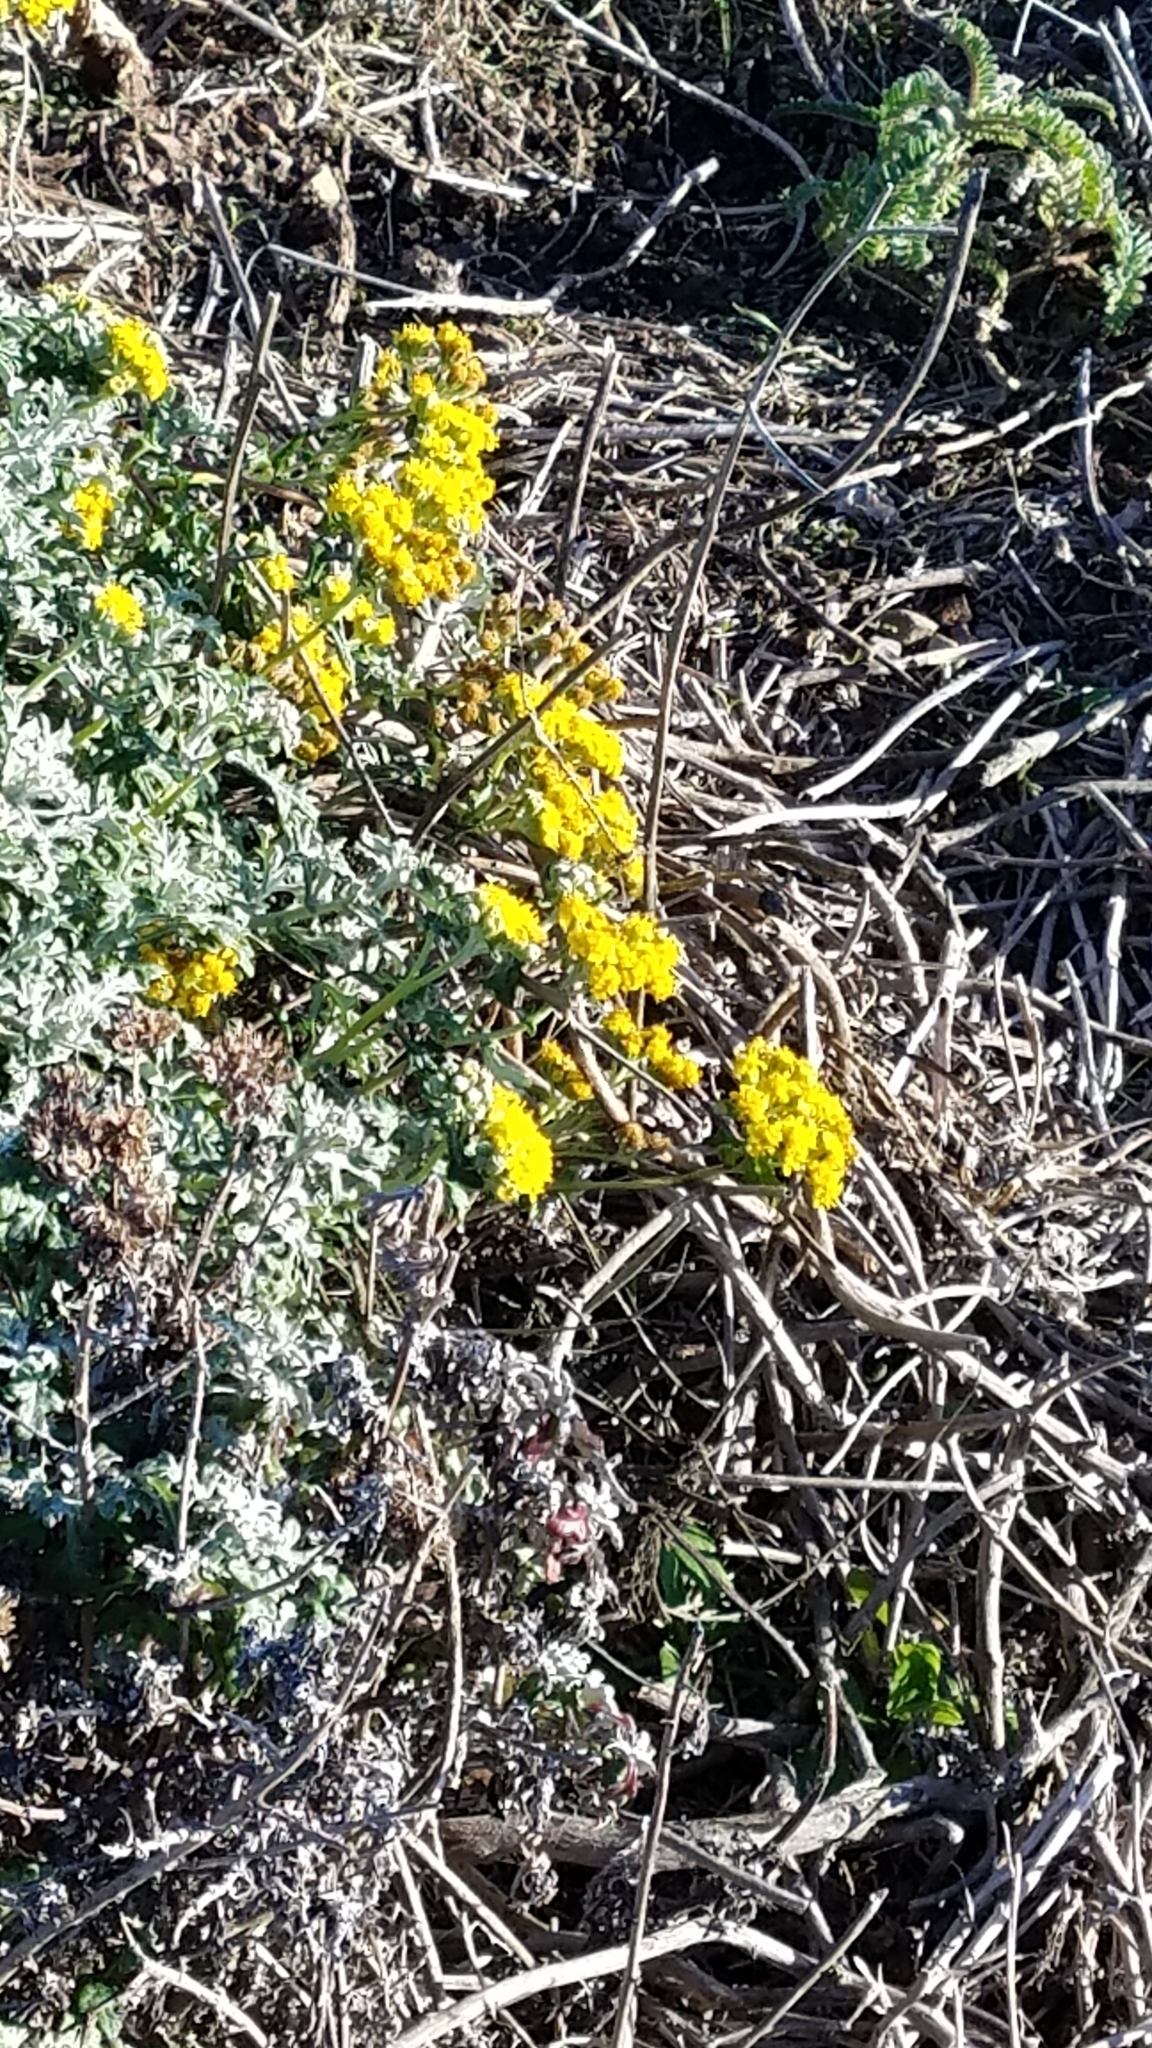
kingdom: Plantae
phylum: Tracheophyta
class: Magnoliopsida
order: Asterales
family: Asteraceae
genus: Eriophyllum
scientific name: Eriophyllum staechadifolium
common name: Lizardtail
